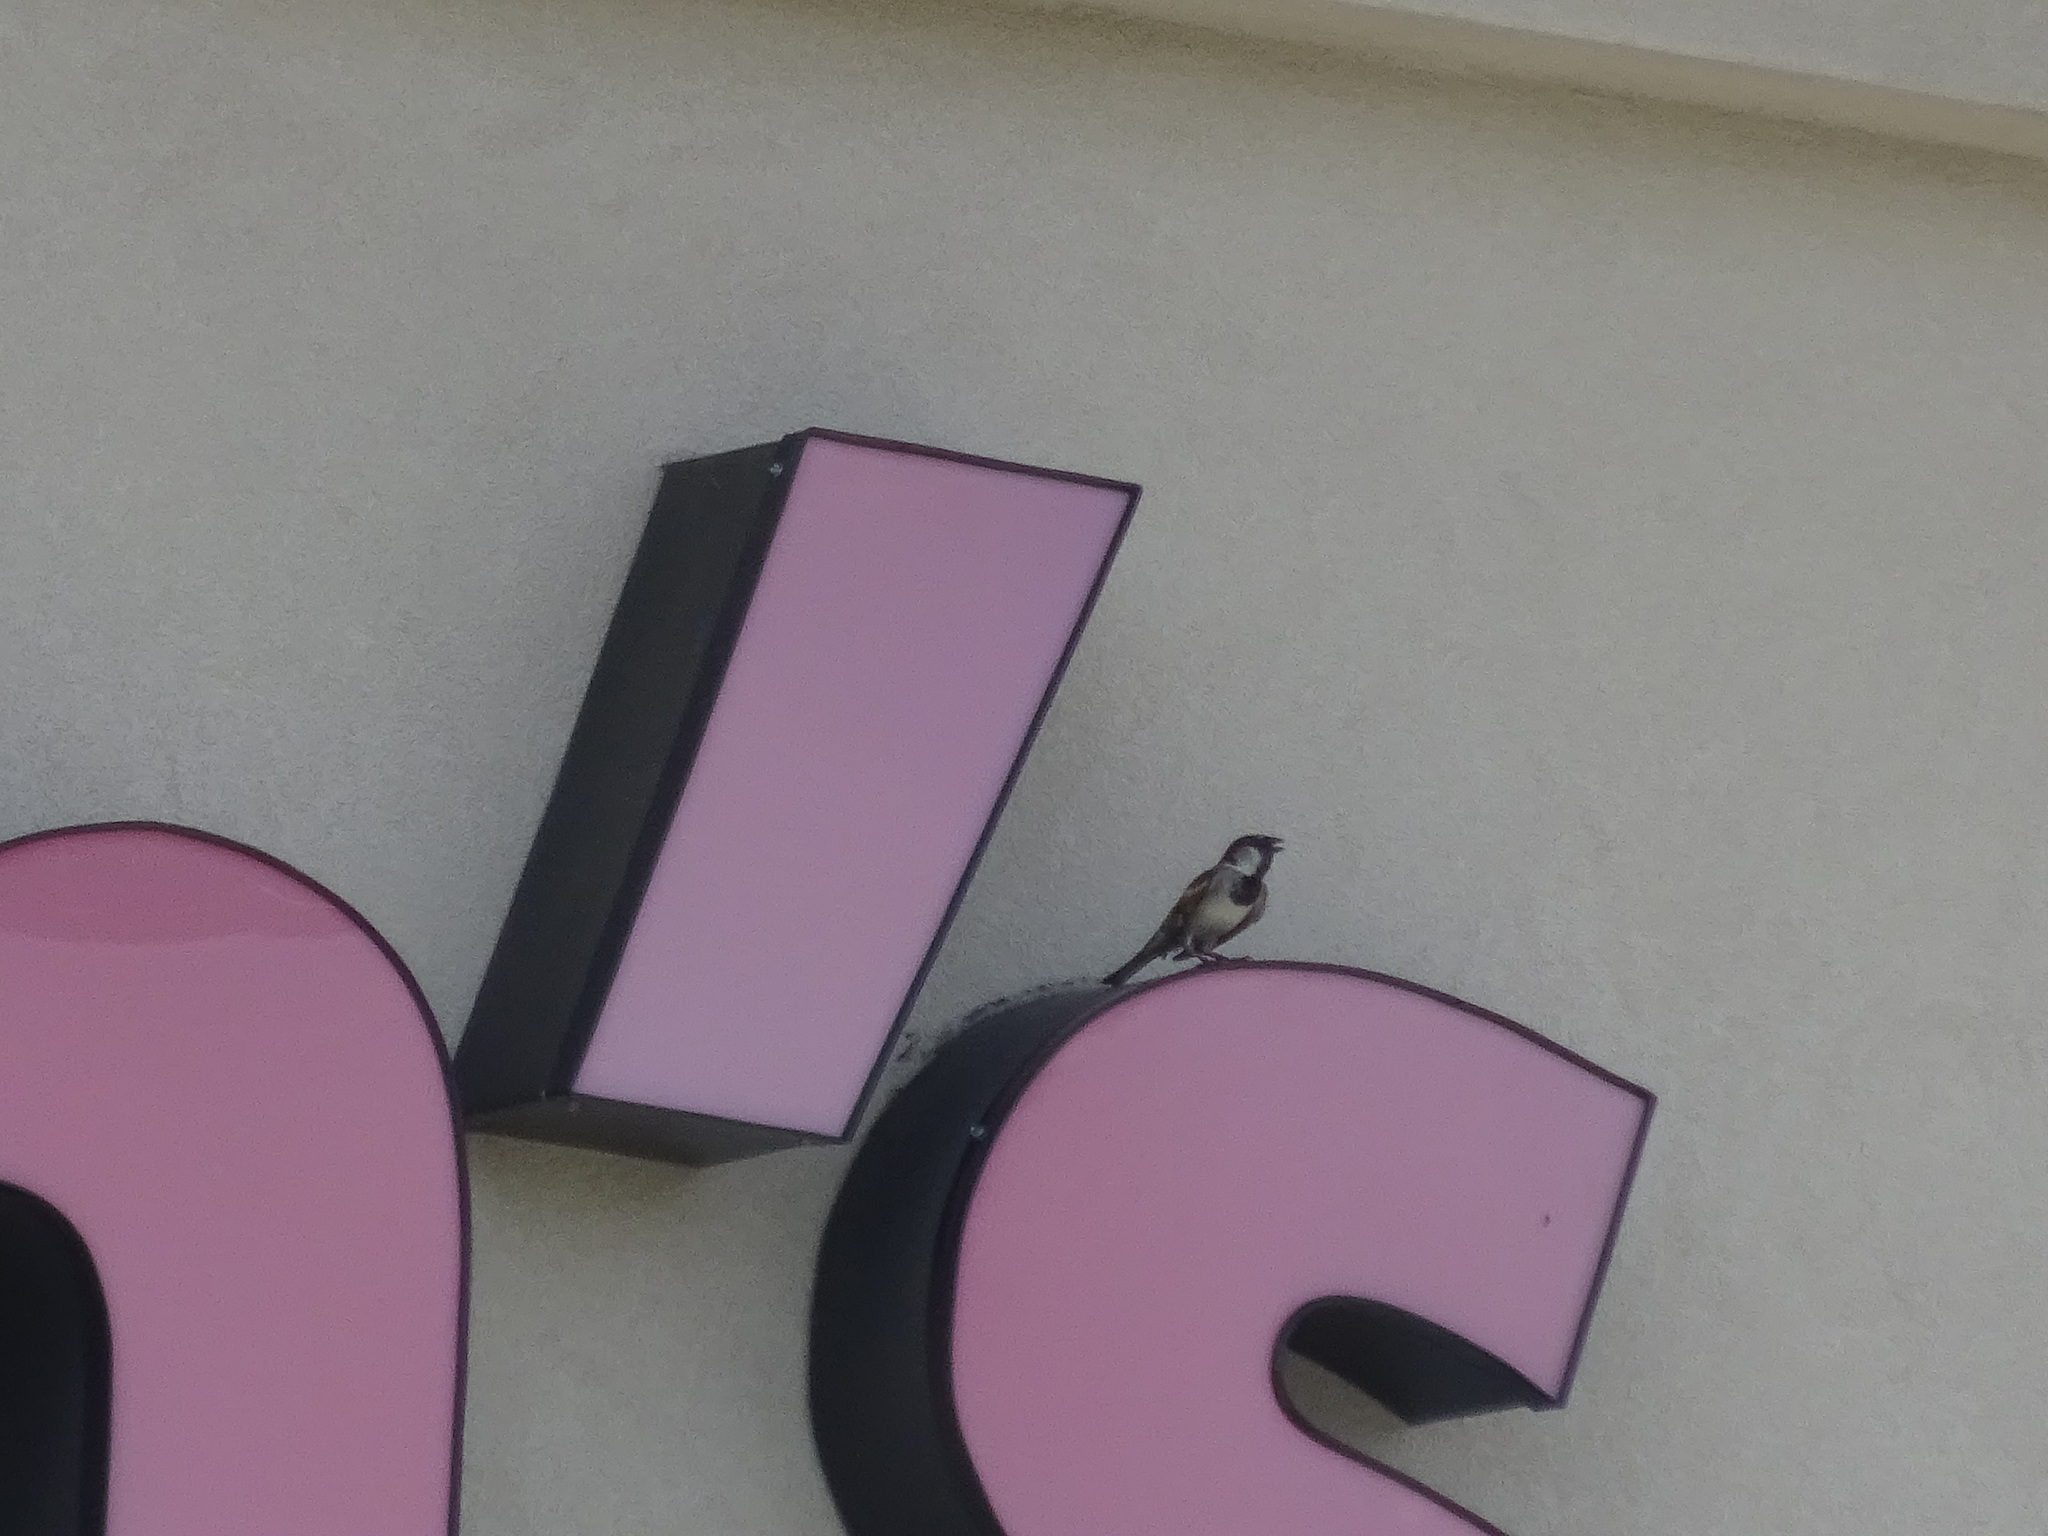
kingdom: Animalia
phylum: Chordata
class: Aves
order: Passeriformes
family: Passeridae
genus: Passer
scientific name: Passer domesticus
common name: House sparrow
